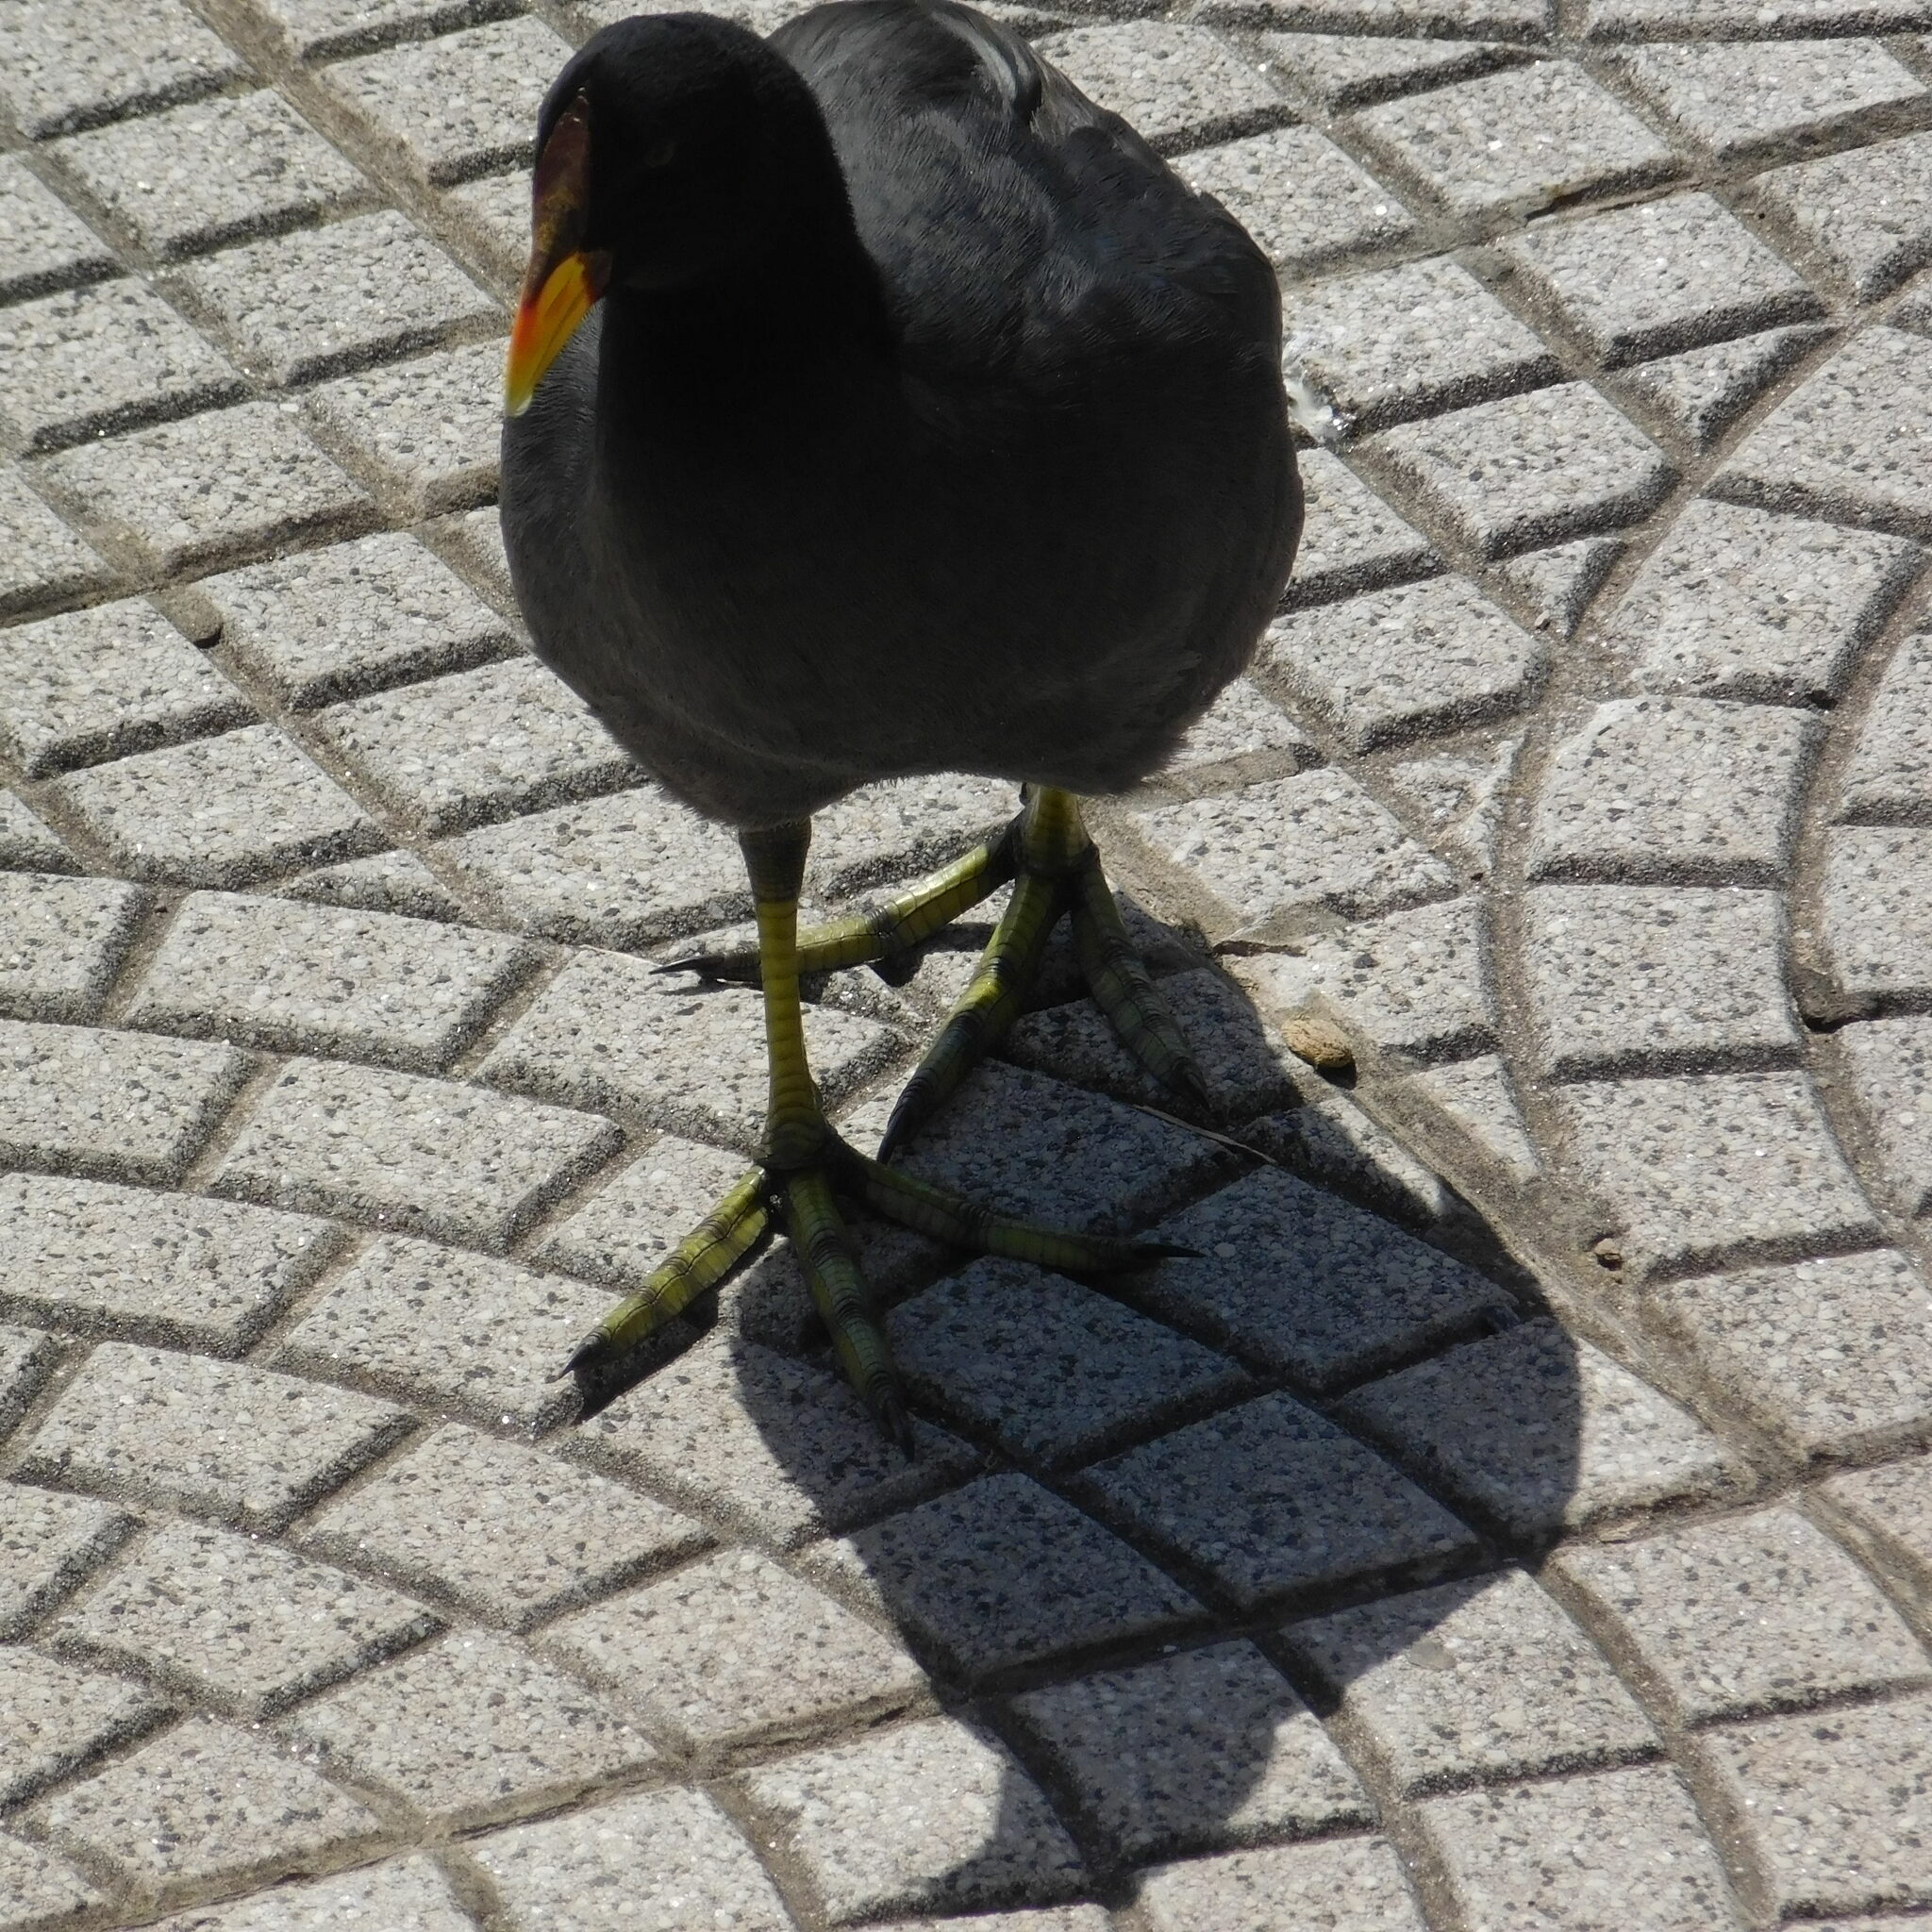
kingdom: Animalia
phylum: Chordata
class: Aves
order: Gruiformes
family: Rallidae
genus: Fulica
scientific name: Fulica rufifrons
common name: Red-fronted coot
